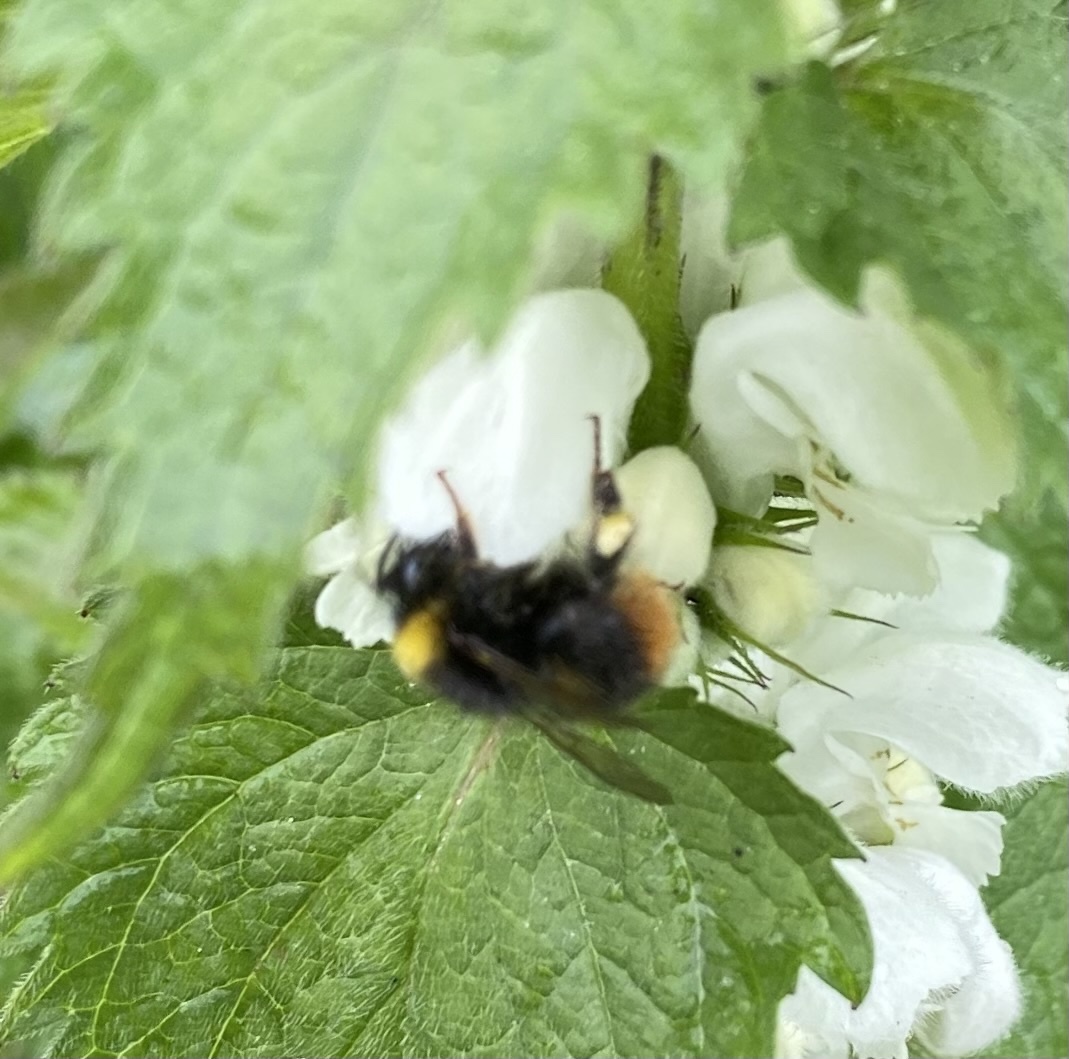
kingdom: Animalia
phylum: Arthropoda
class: Insecta
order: Hymenoptera
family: Apidae
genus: Bombus
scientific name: Bombus pratorum
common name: Early humble-bee
